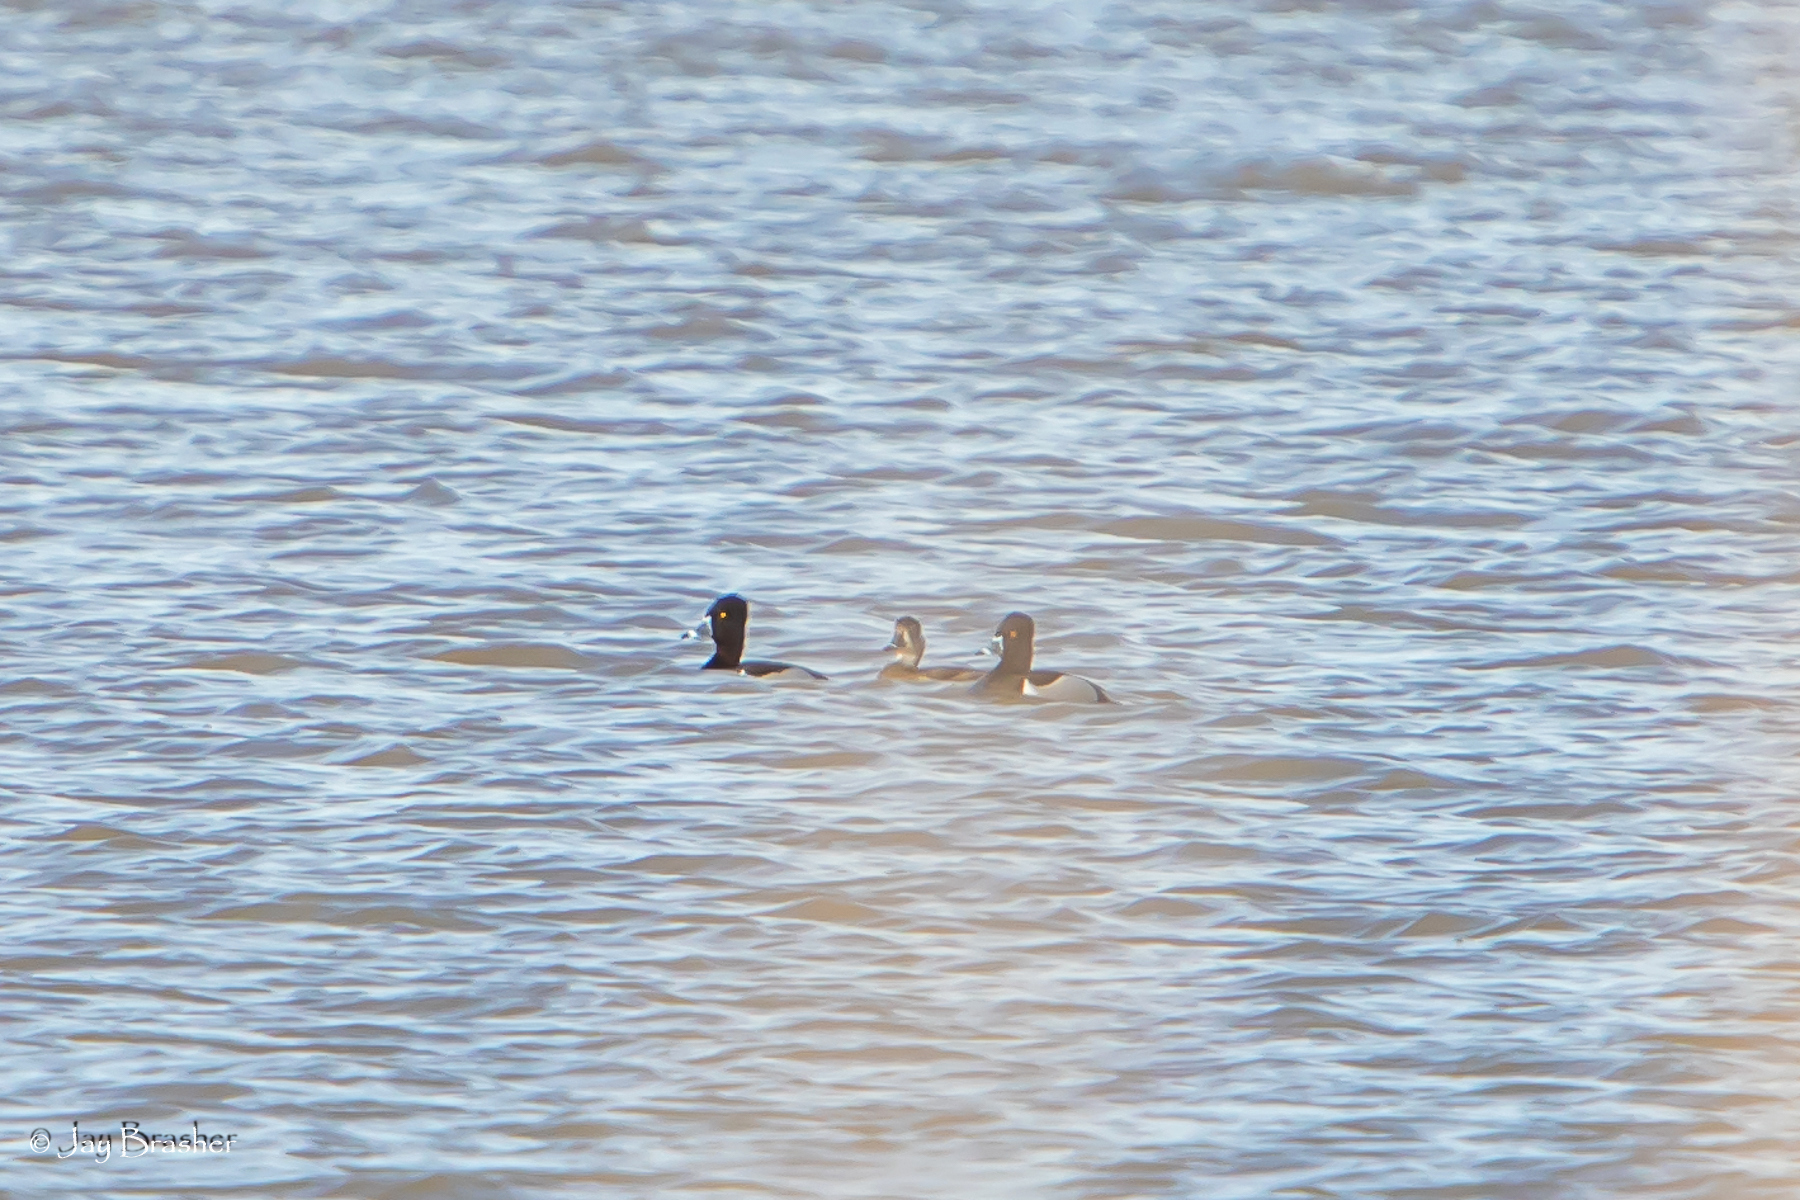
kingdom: Animalia
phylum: Chordata
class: Aves
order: Anseriformes
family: Anatidae
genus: Aythya
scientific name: Aythya collaris
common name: Ring-necked duck
